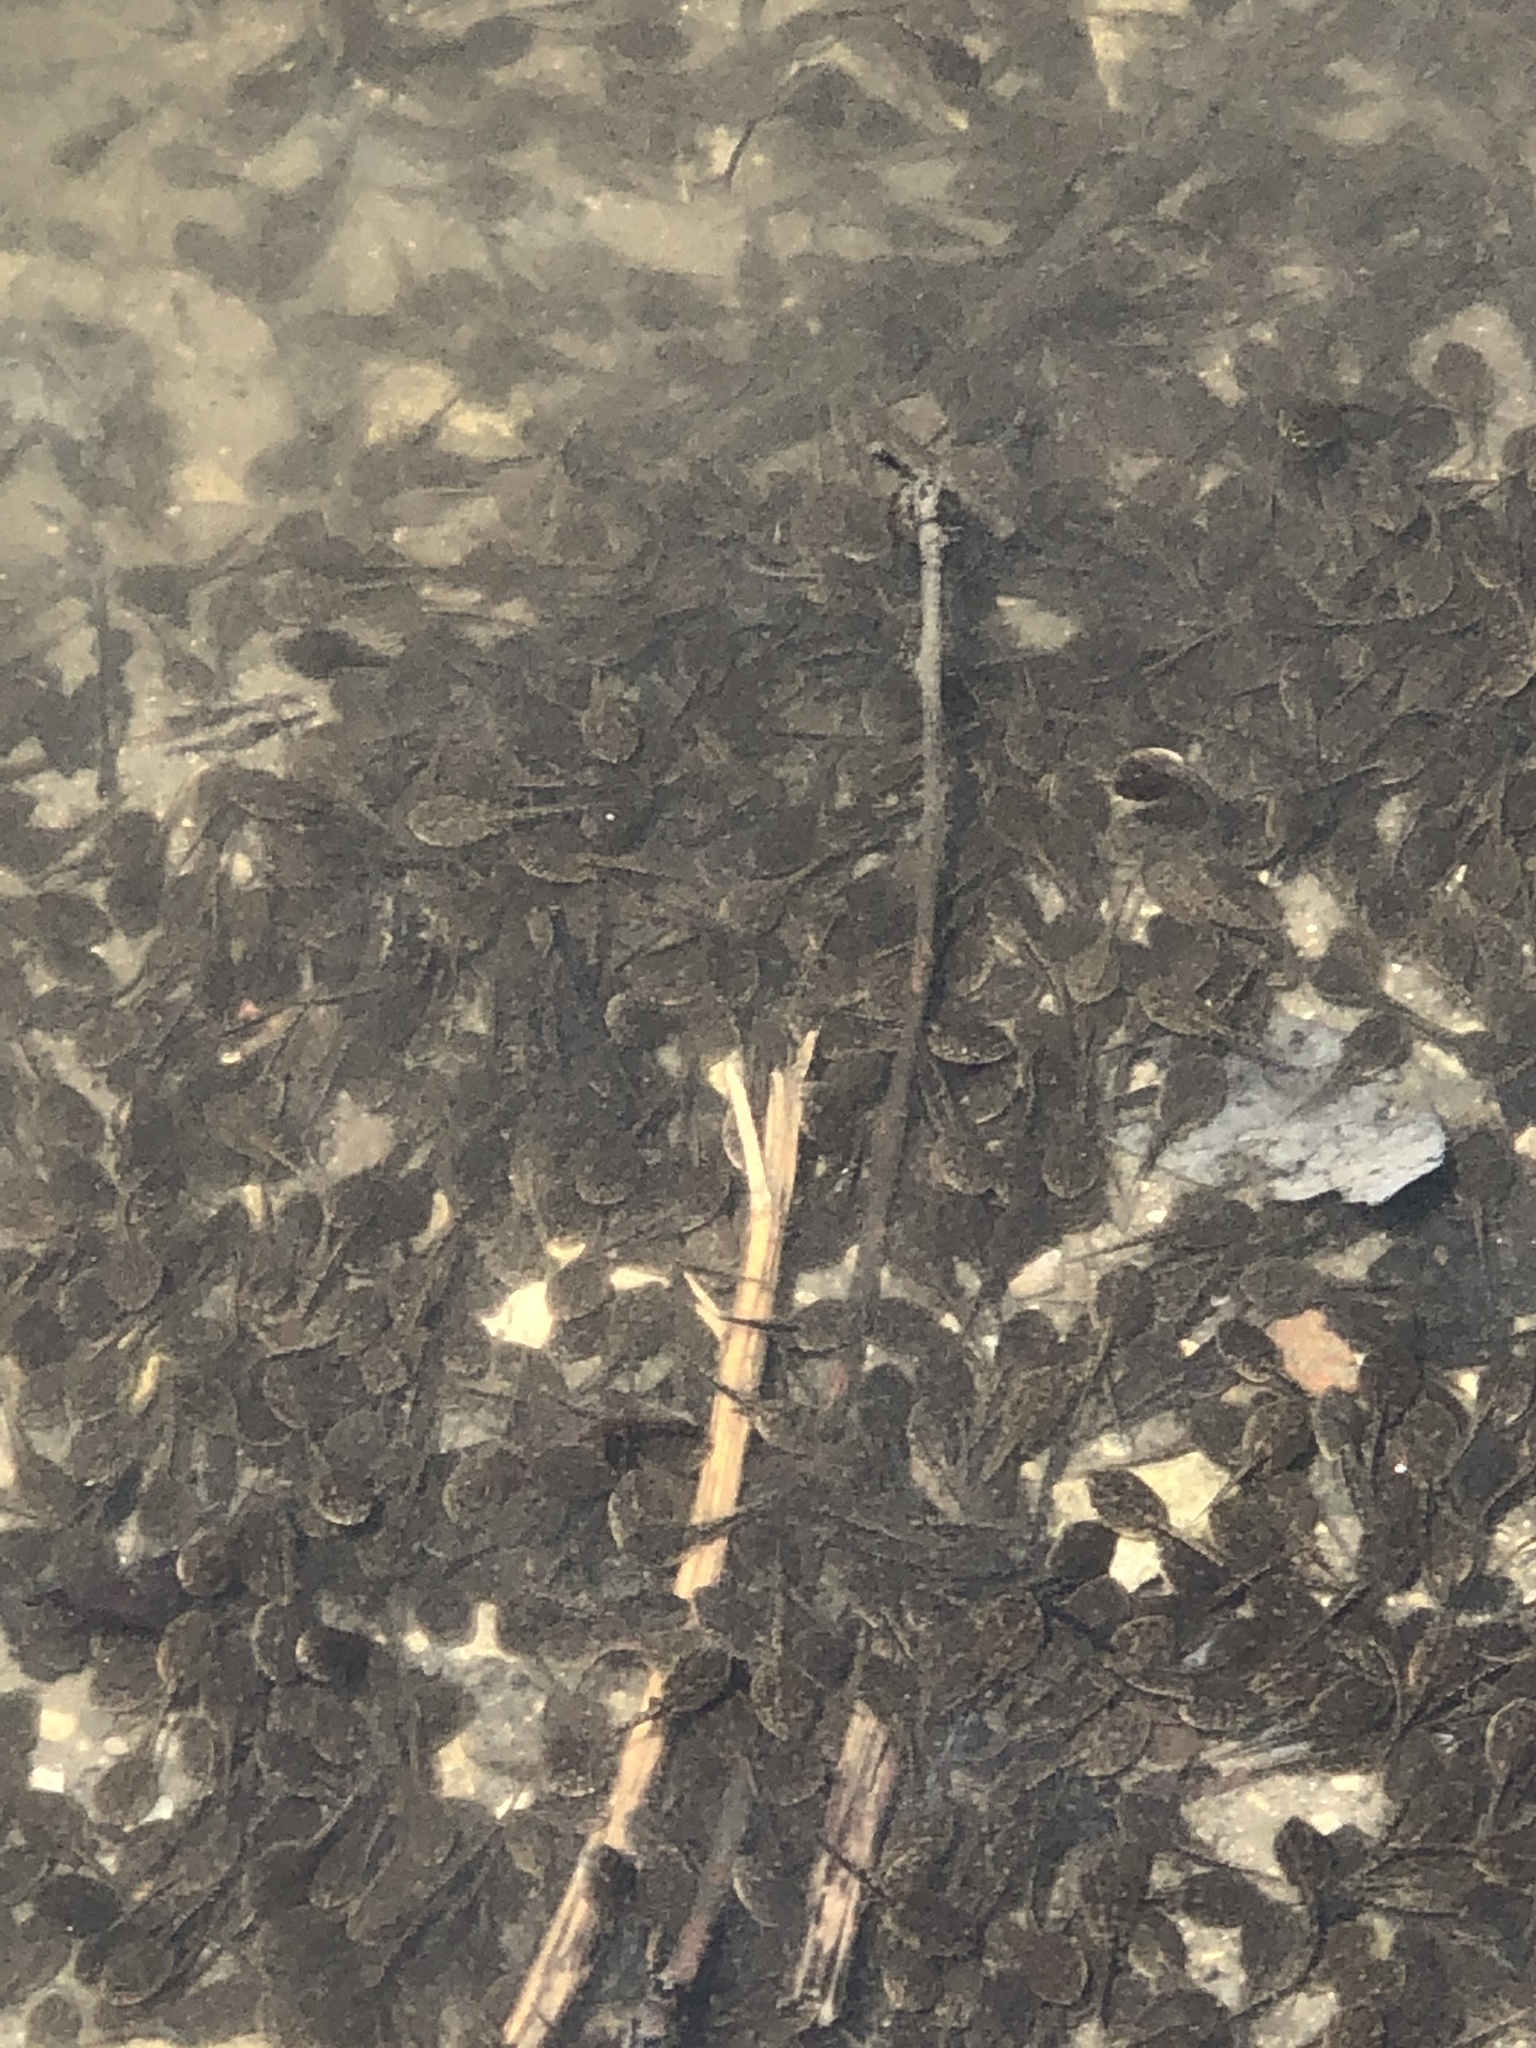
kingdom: Animalia
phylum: Chordata
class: Amphibia
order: Anura
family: Bufonidae
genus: Anaxyrus
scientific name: Anaxyrus americanus
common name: American toad
